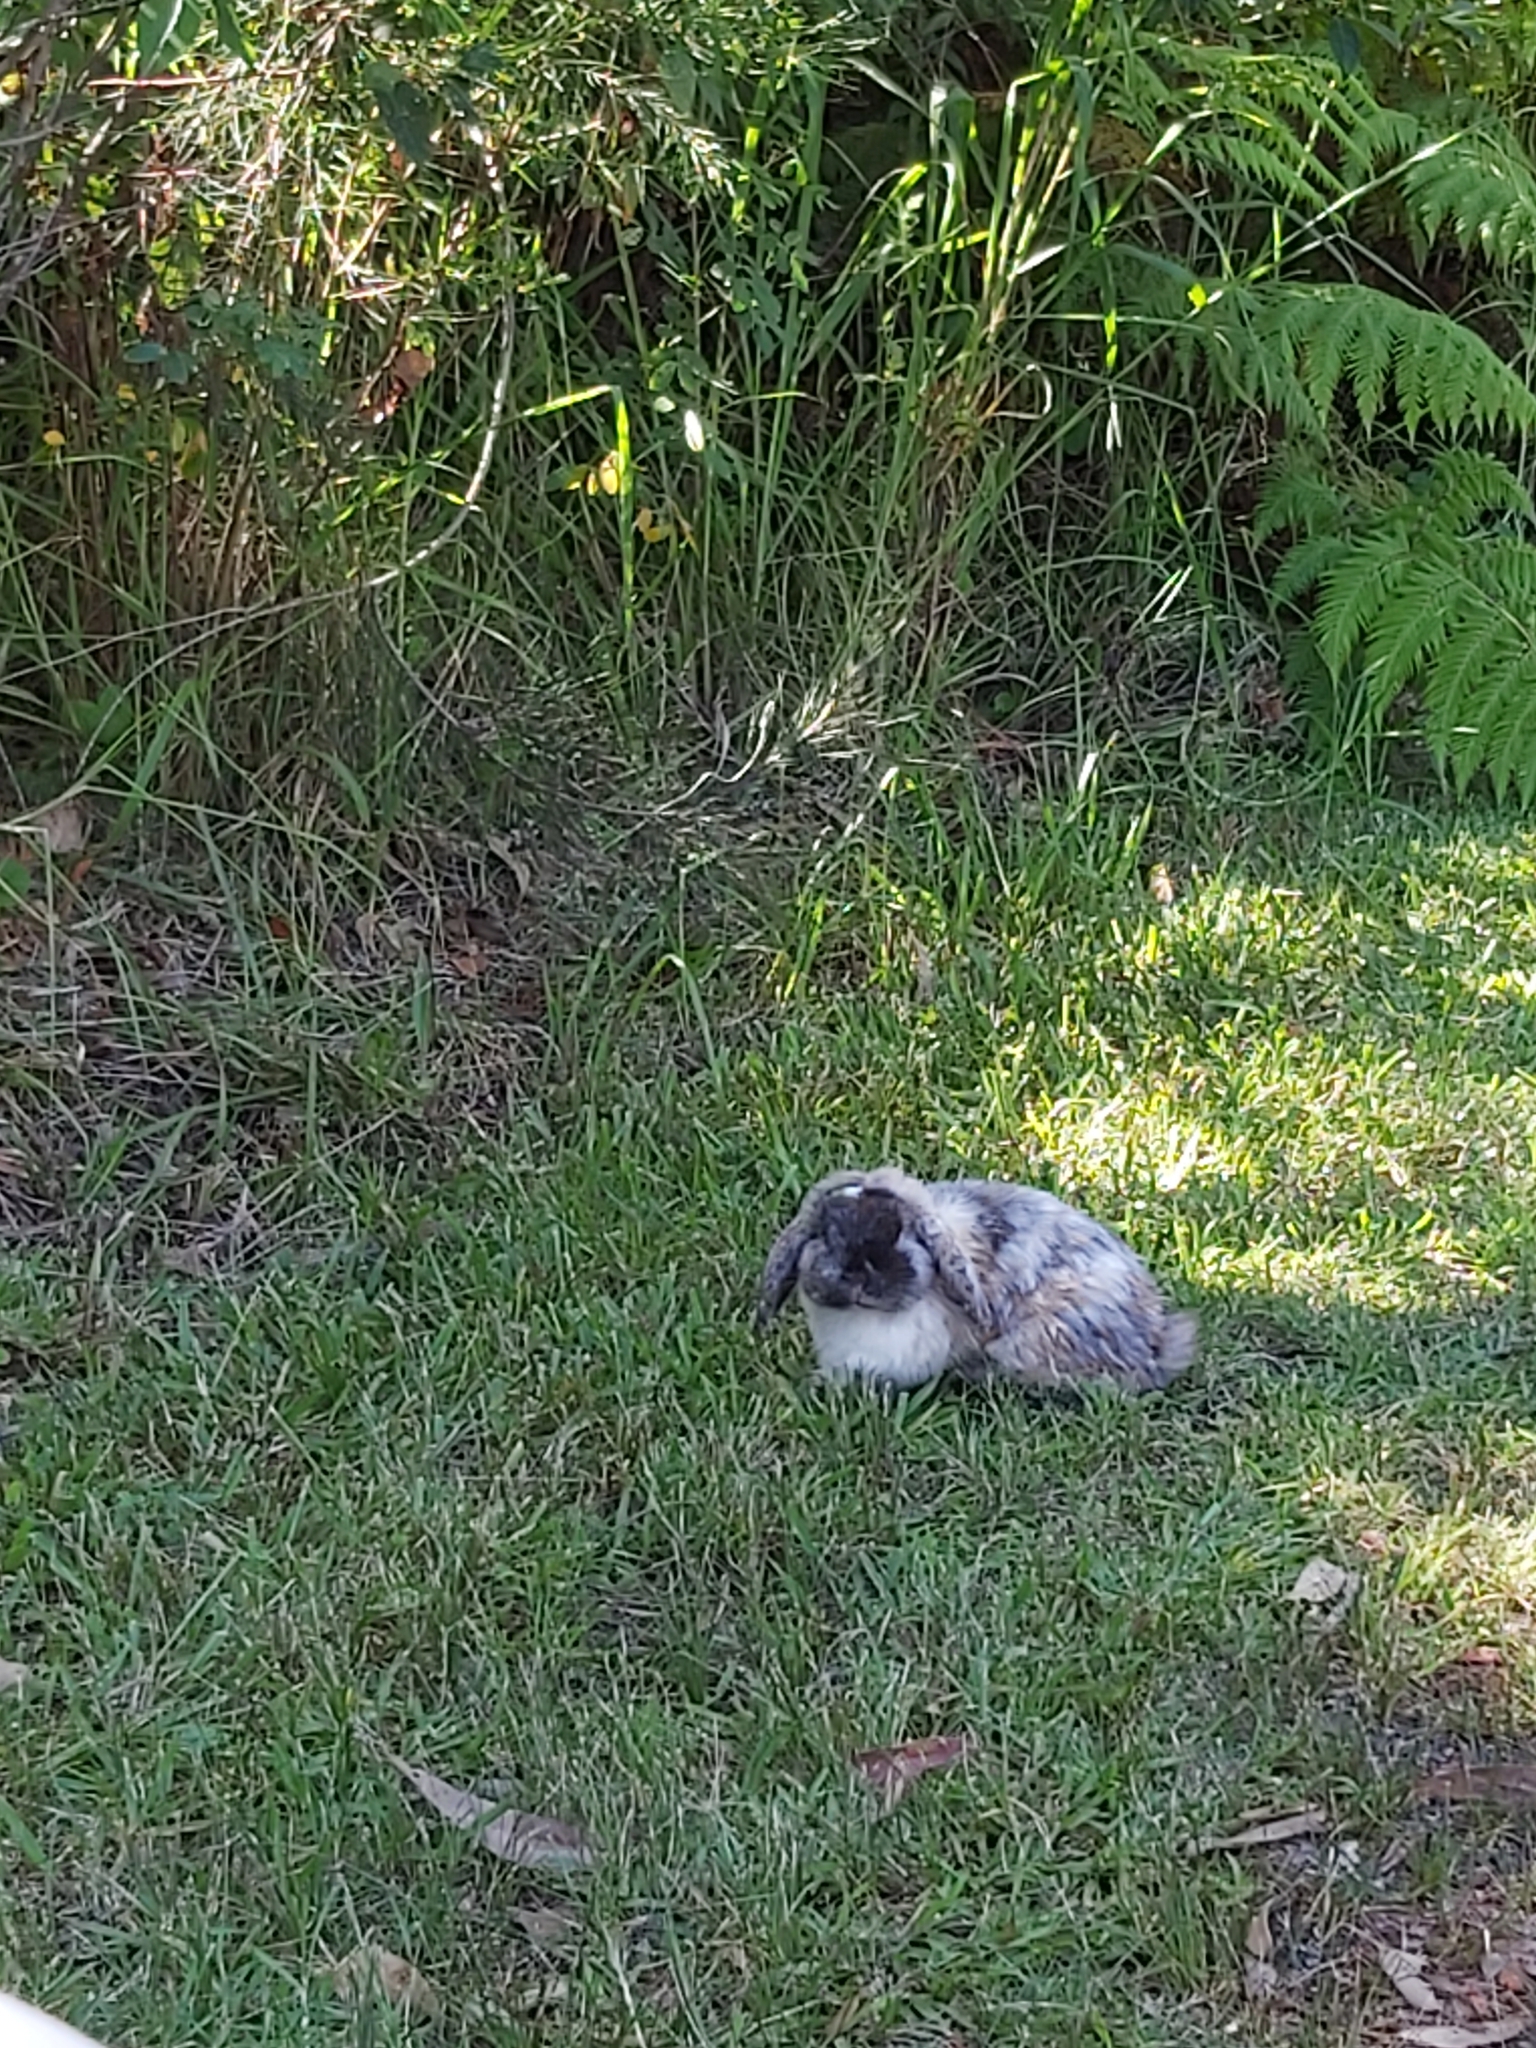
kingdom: Animalia
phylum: Chordata
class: Mammalia
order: Lagomorpha
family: Leporidae
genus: Oryctolagus
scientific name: Oryctolagus cuniculus
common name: European rabbit
